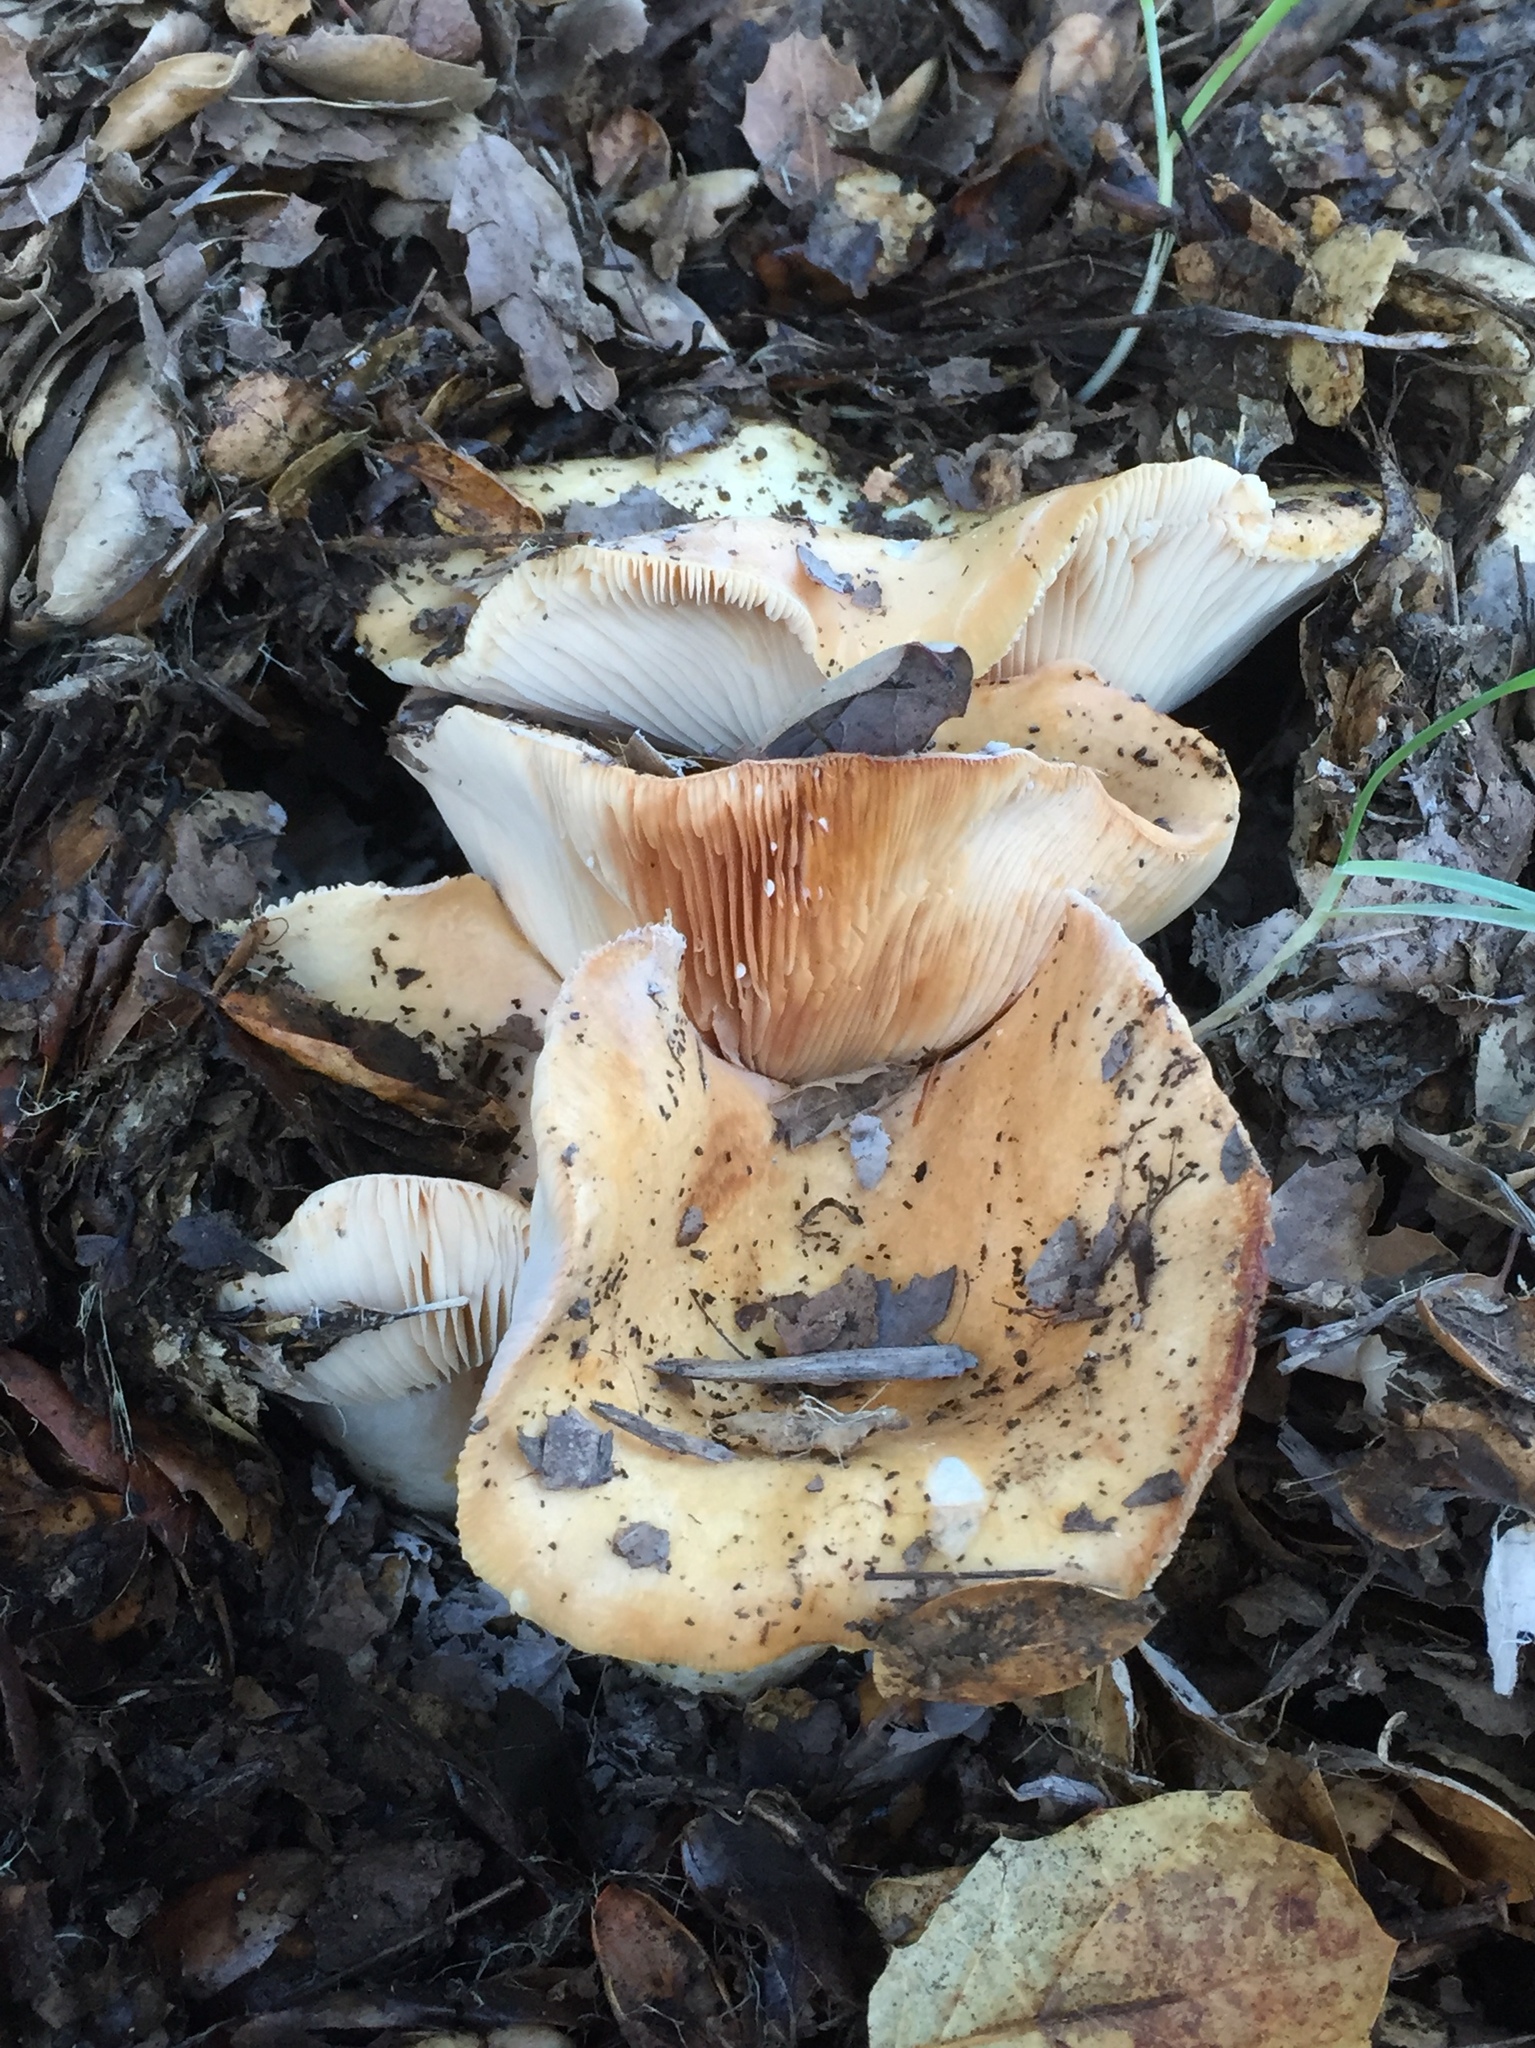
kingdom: Fungi
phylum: Basidiomycota
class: Agaricomycetes
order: Russulales
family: Russulaceae
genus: Lactarius
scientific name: Lactarius alnicola
